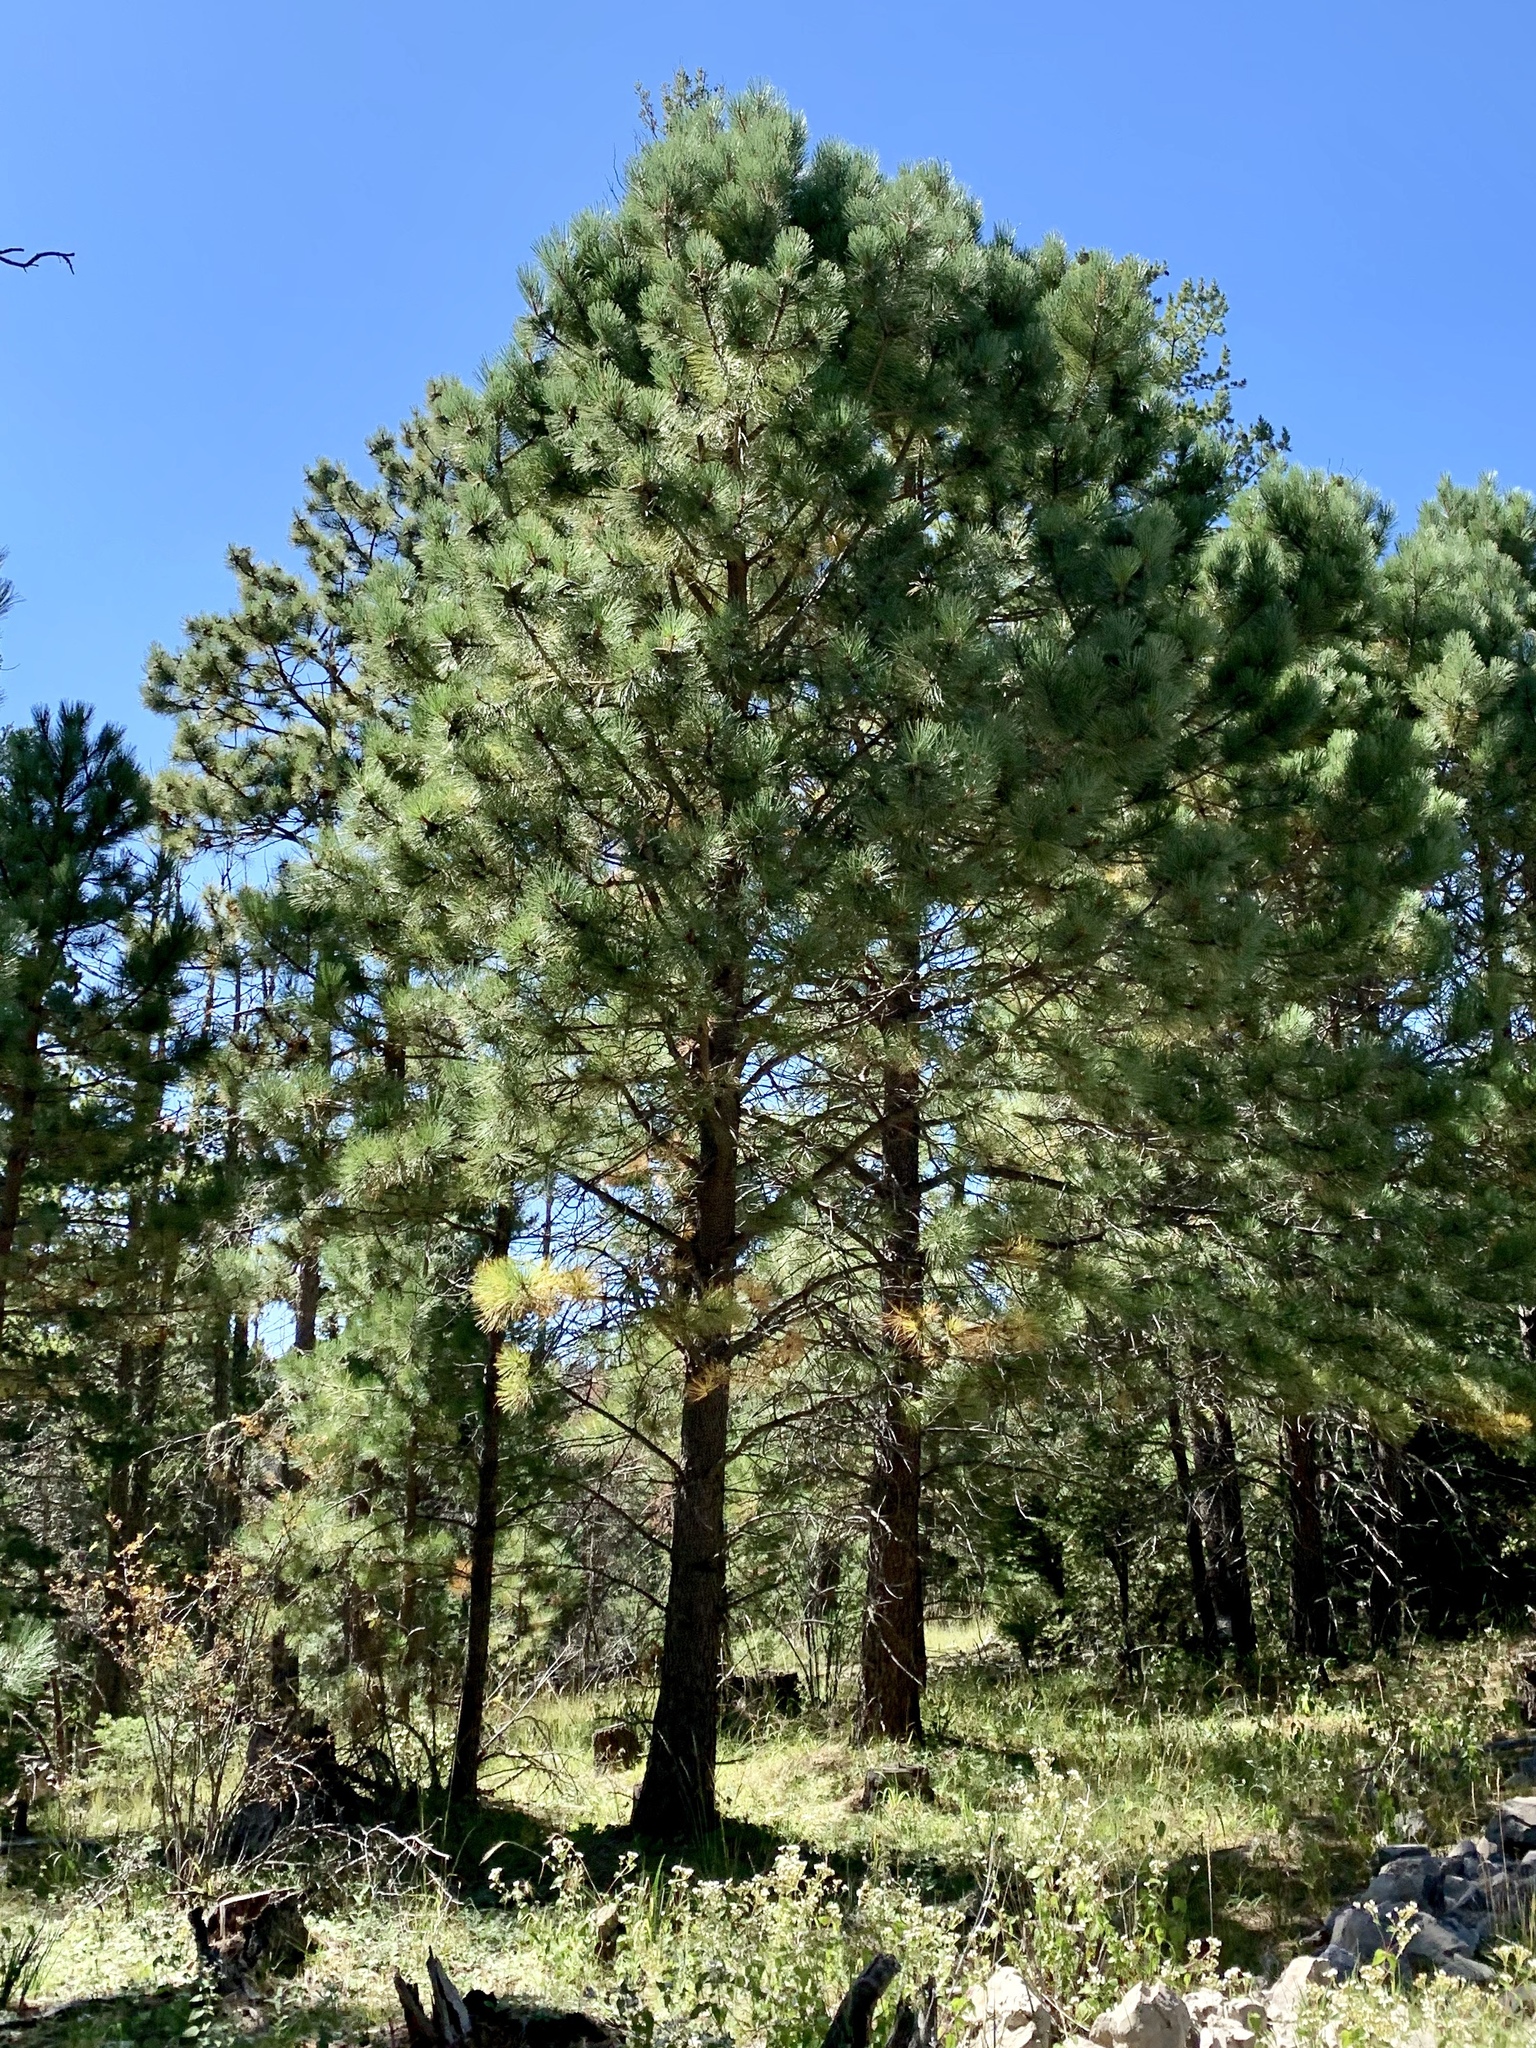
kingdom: Plantae
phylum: Tracheophyta
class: Pinopsida
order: Pinales
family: Pinaceae
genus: Pinus
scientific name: Pinus ponderosa
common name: Western yellow-pine
